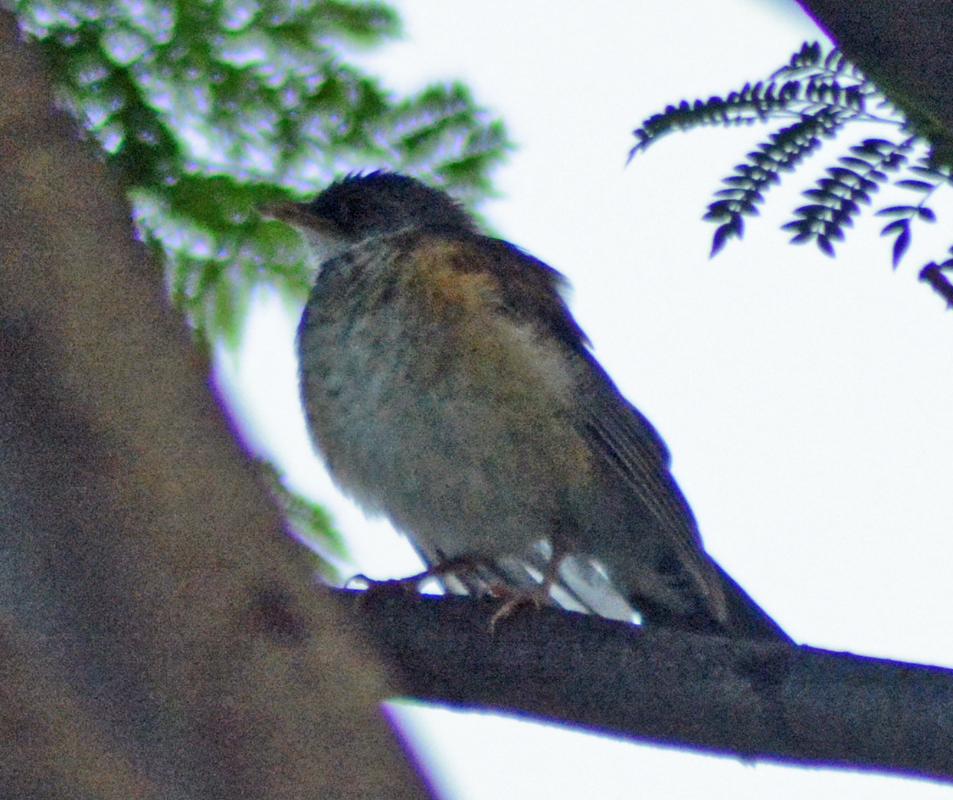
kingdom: Animalia
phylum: Chordata
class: Aves
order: Passeriformes
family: Turdidae
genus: Turdus
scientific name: Turdus rufopalliatus
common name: Rufous-backed robin
